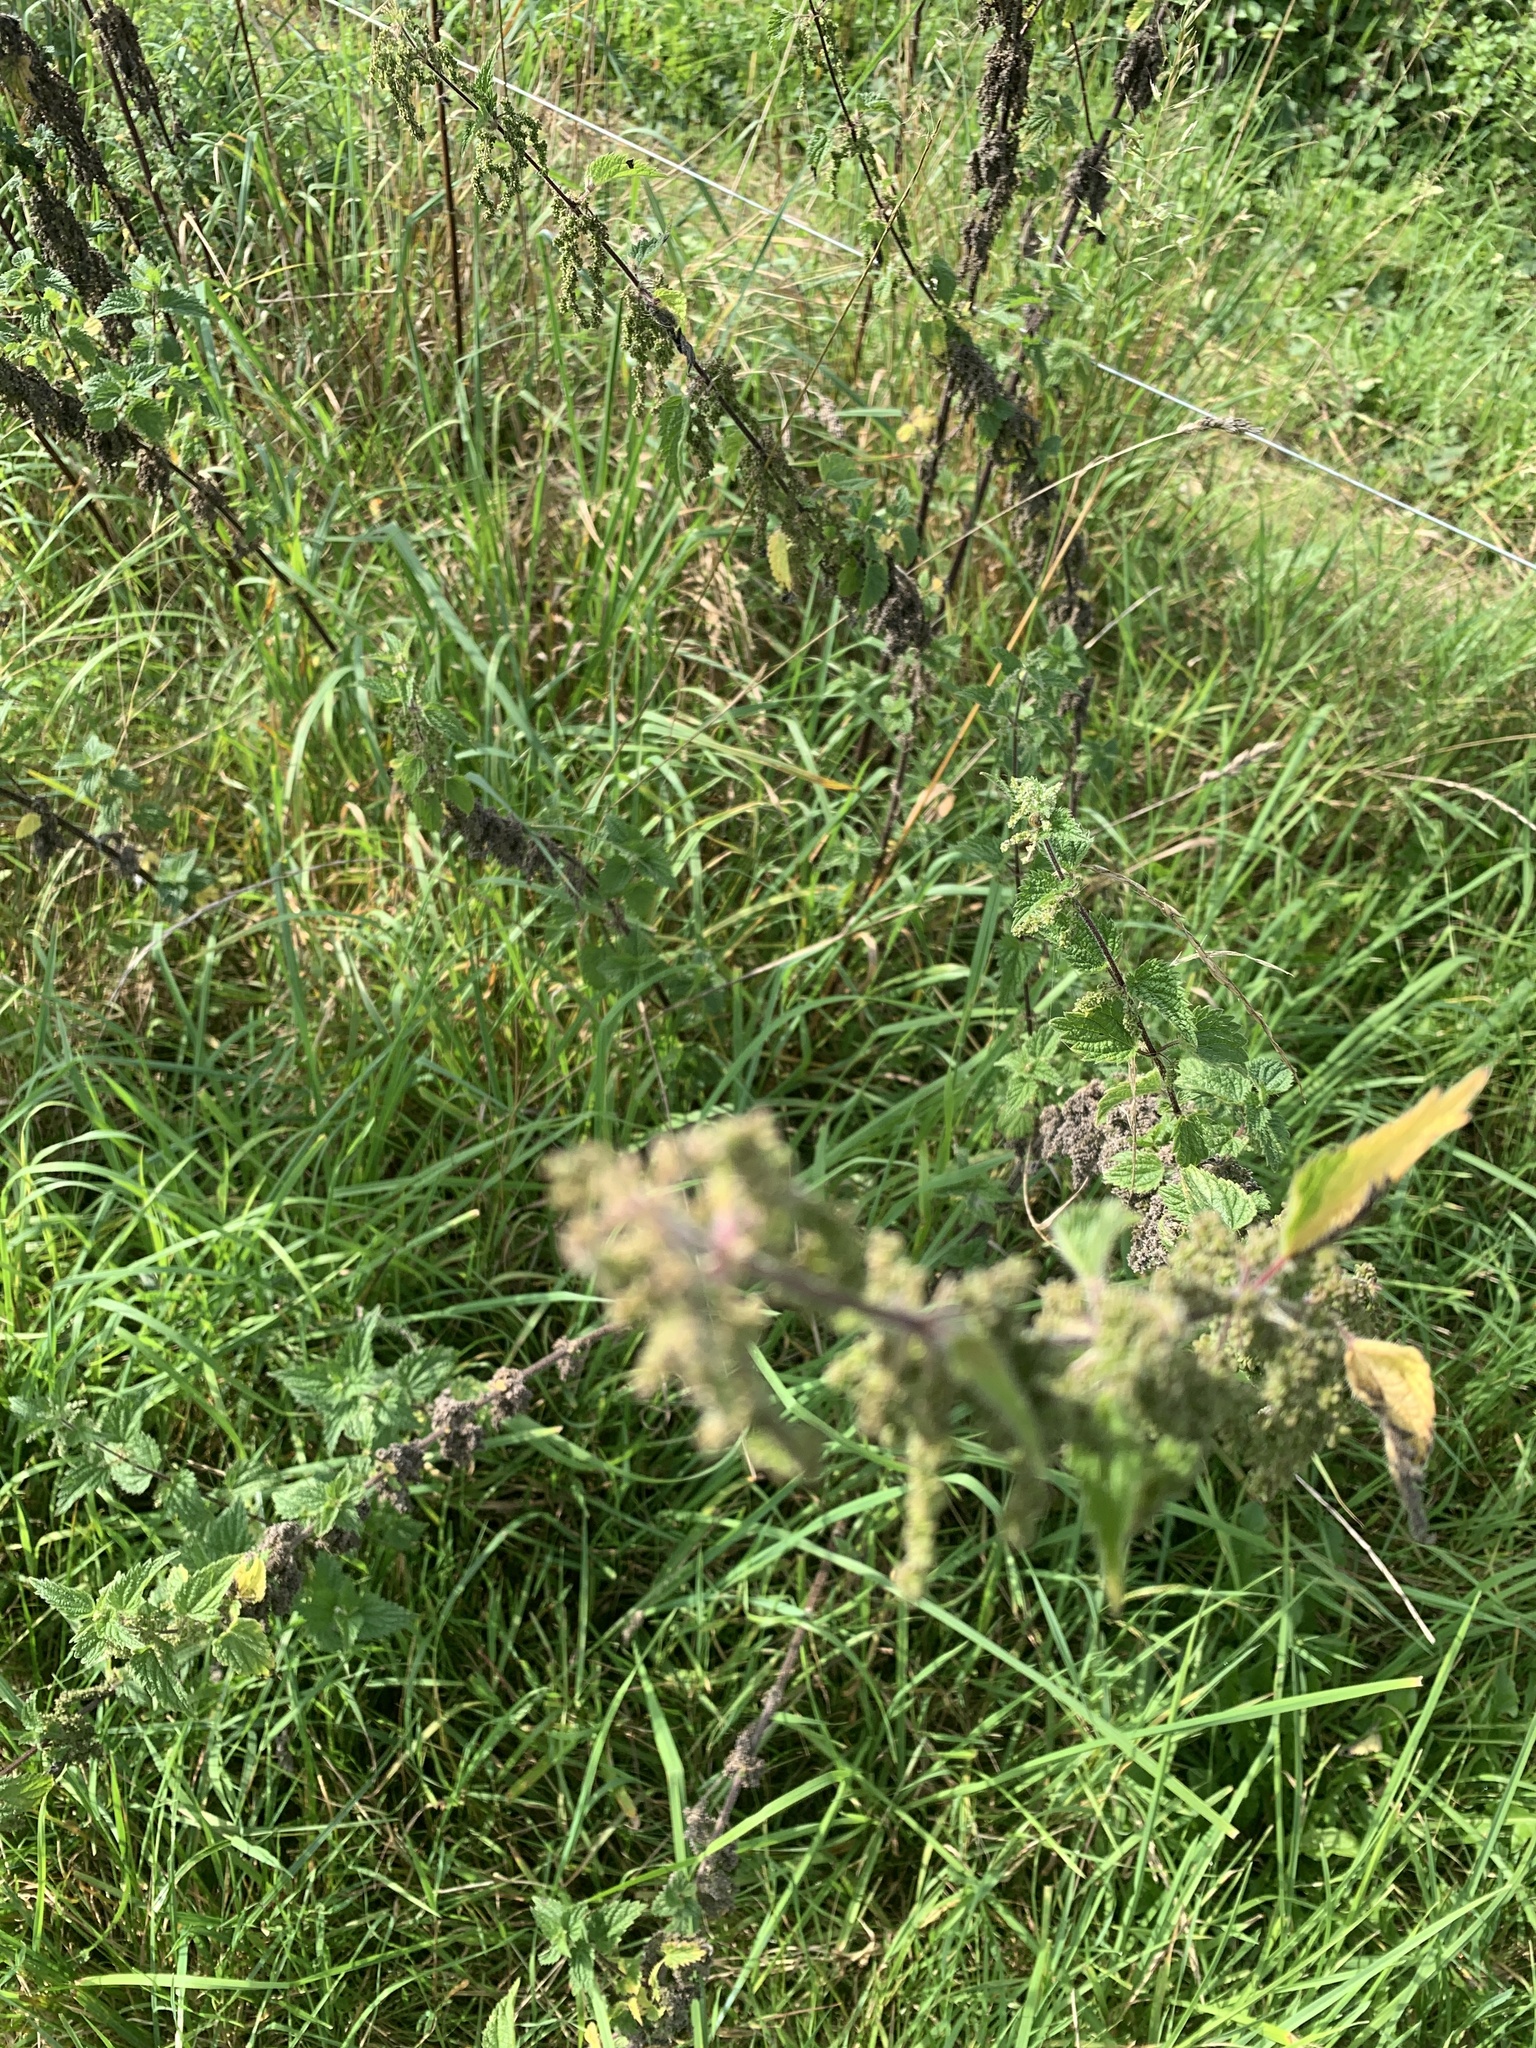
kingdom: Plantae
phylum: Tracheophyta
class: Magnoliopsida
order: Rosales
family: Urticaceae
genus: Urtica
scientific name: Urtica dioica
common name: Common nettle
